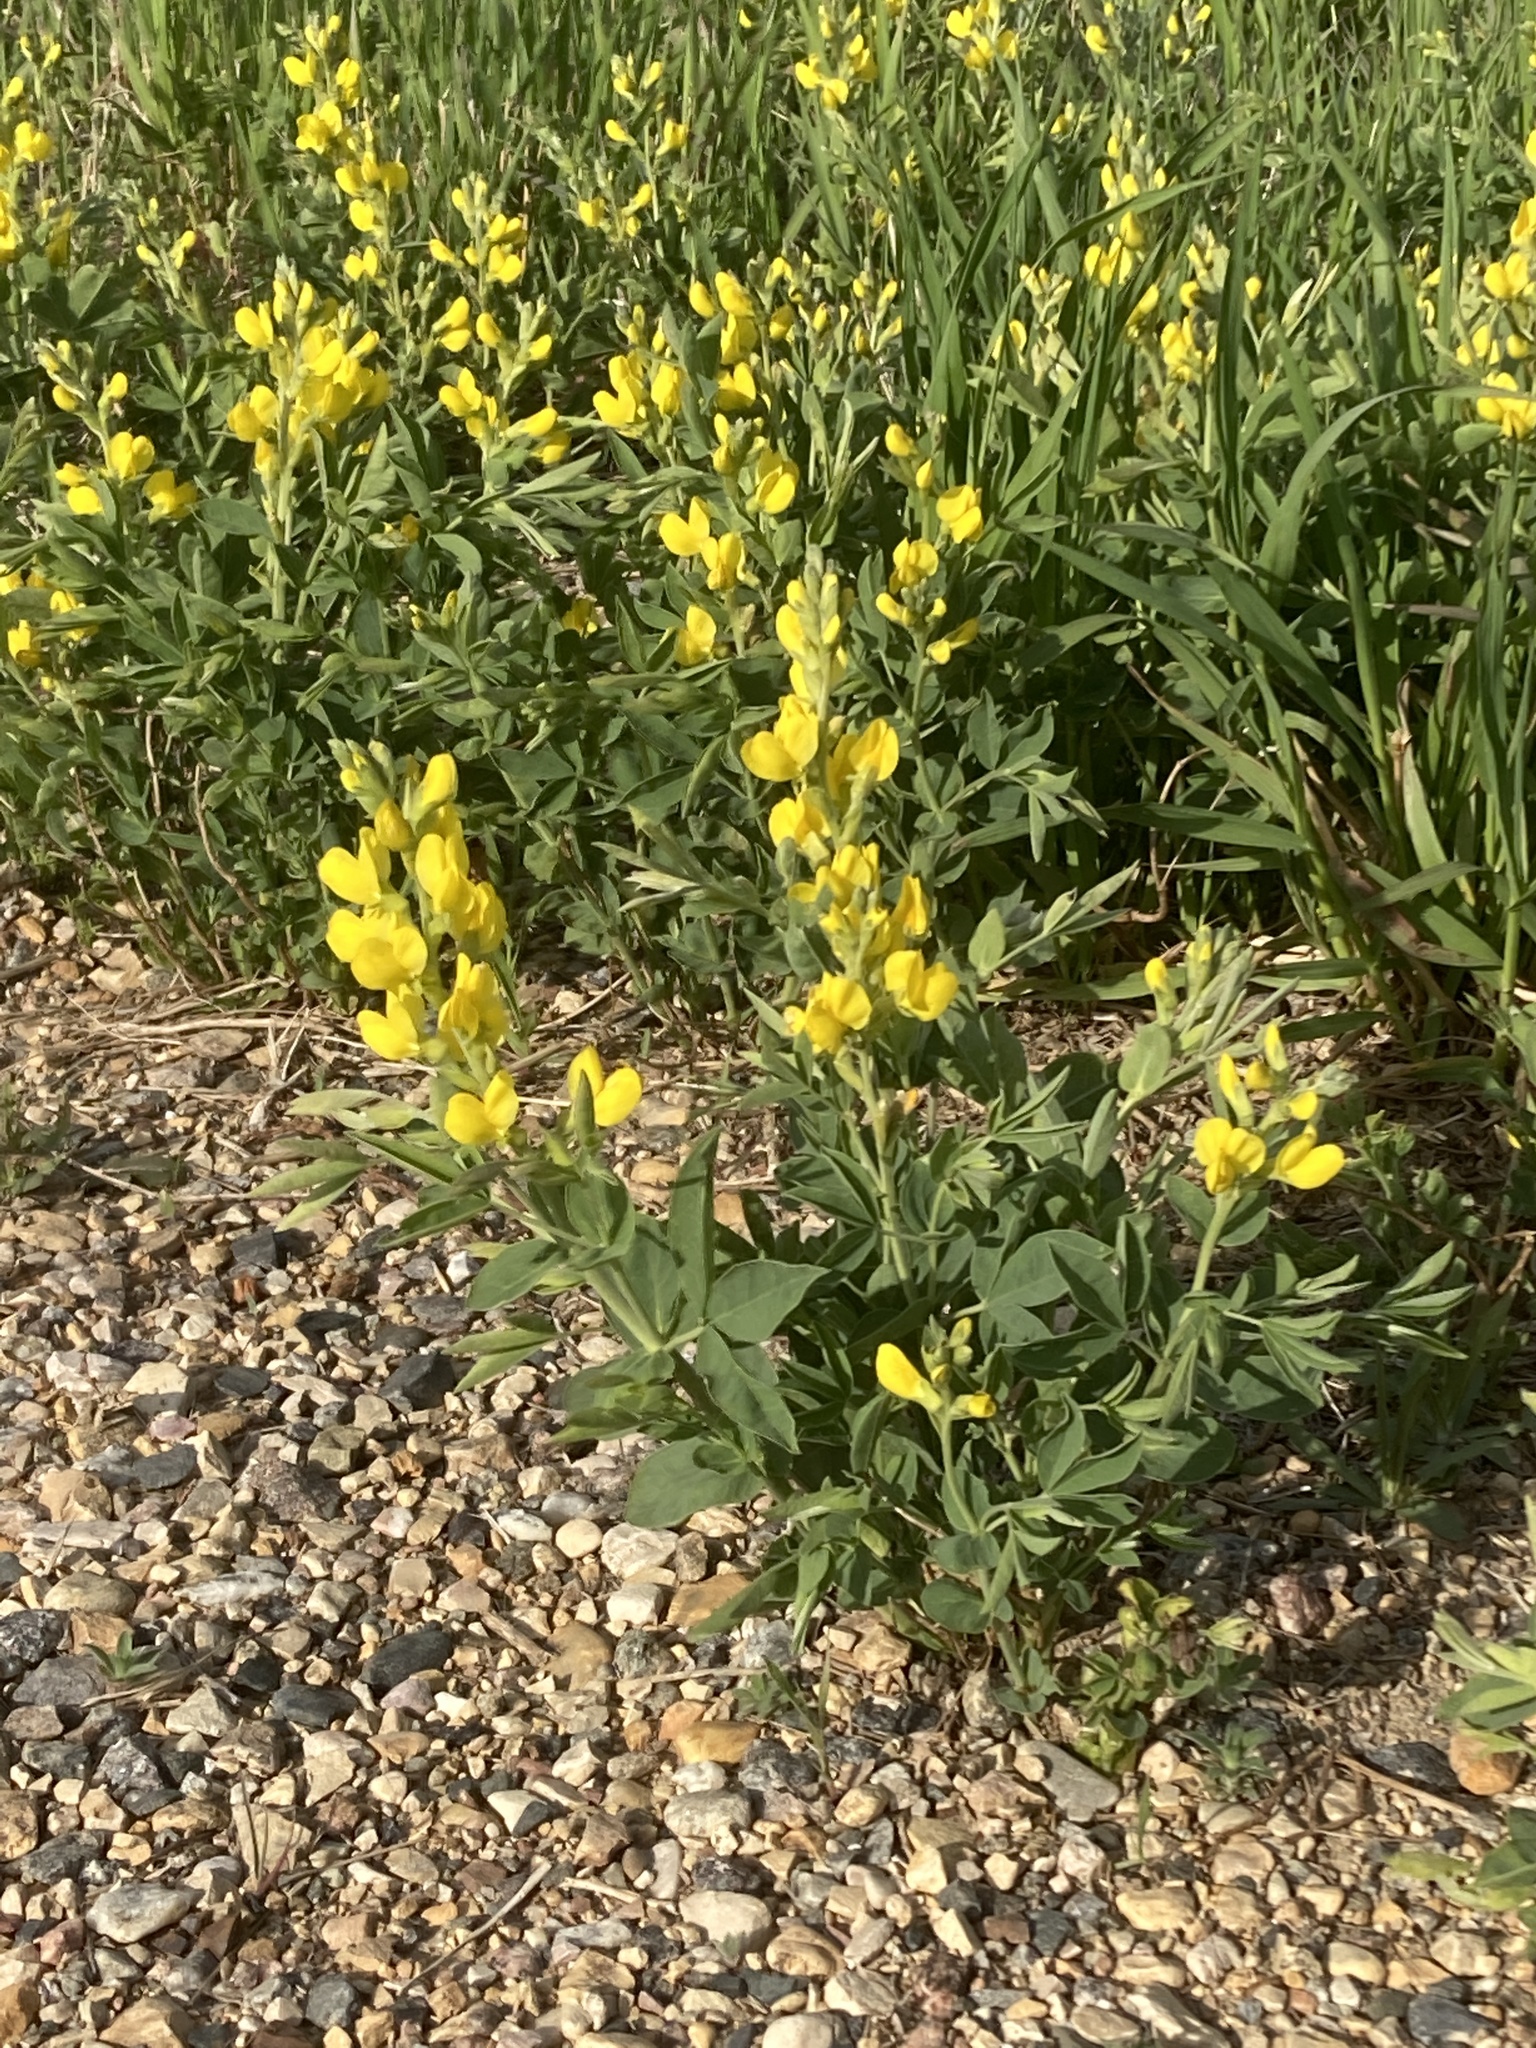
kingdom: Plantae
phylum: Tracheophyta
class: Magnoliopsida
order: Fabales
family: Fabaceae
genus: Thermopsis
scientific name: Thermopsis rhombifolia
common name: Circle-pod-pea
